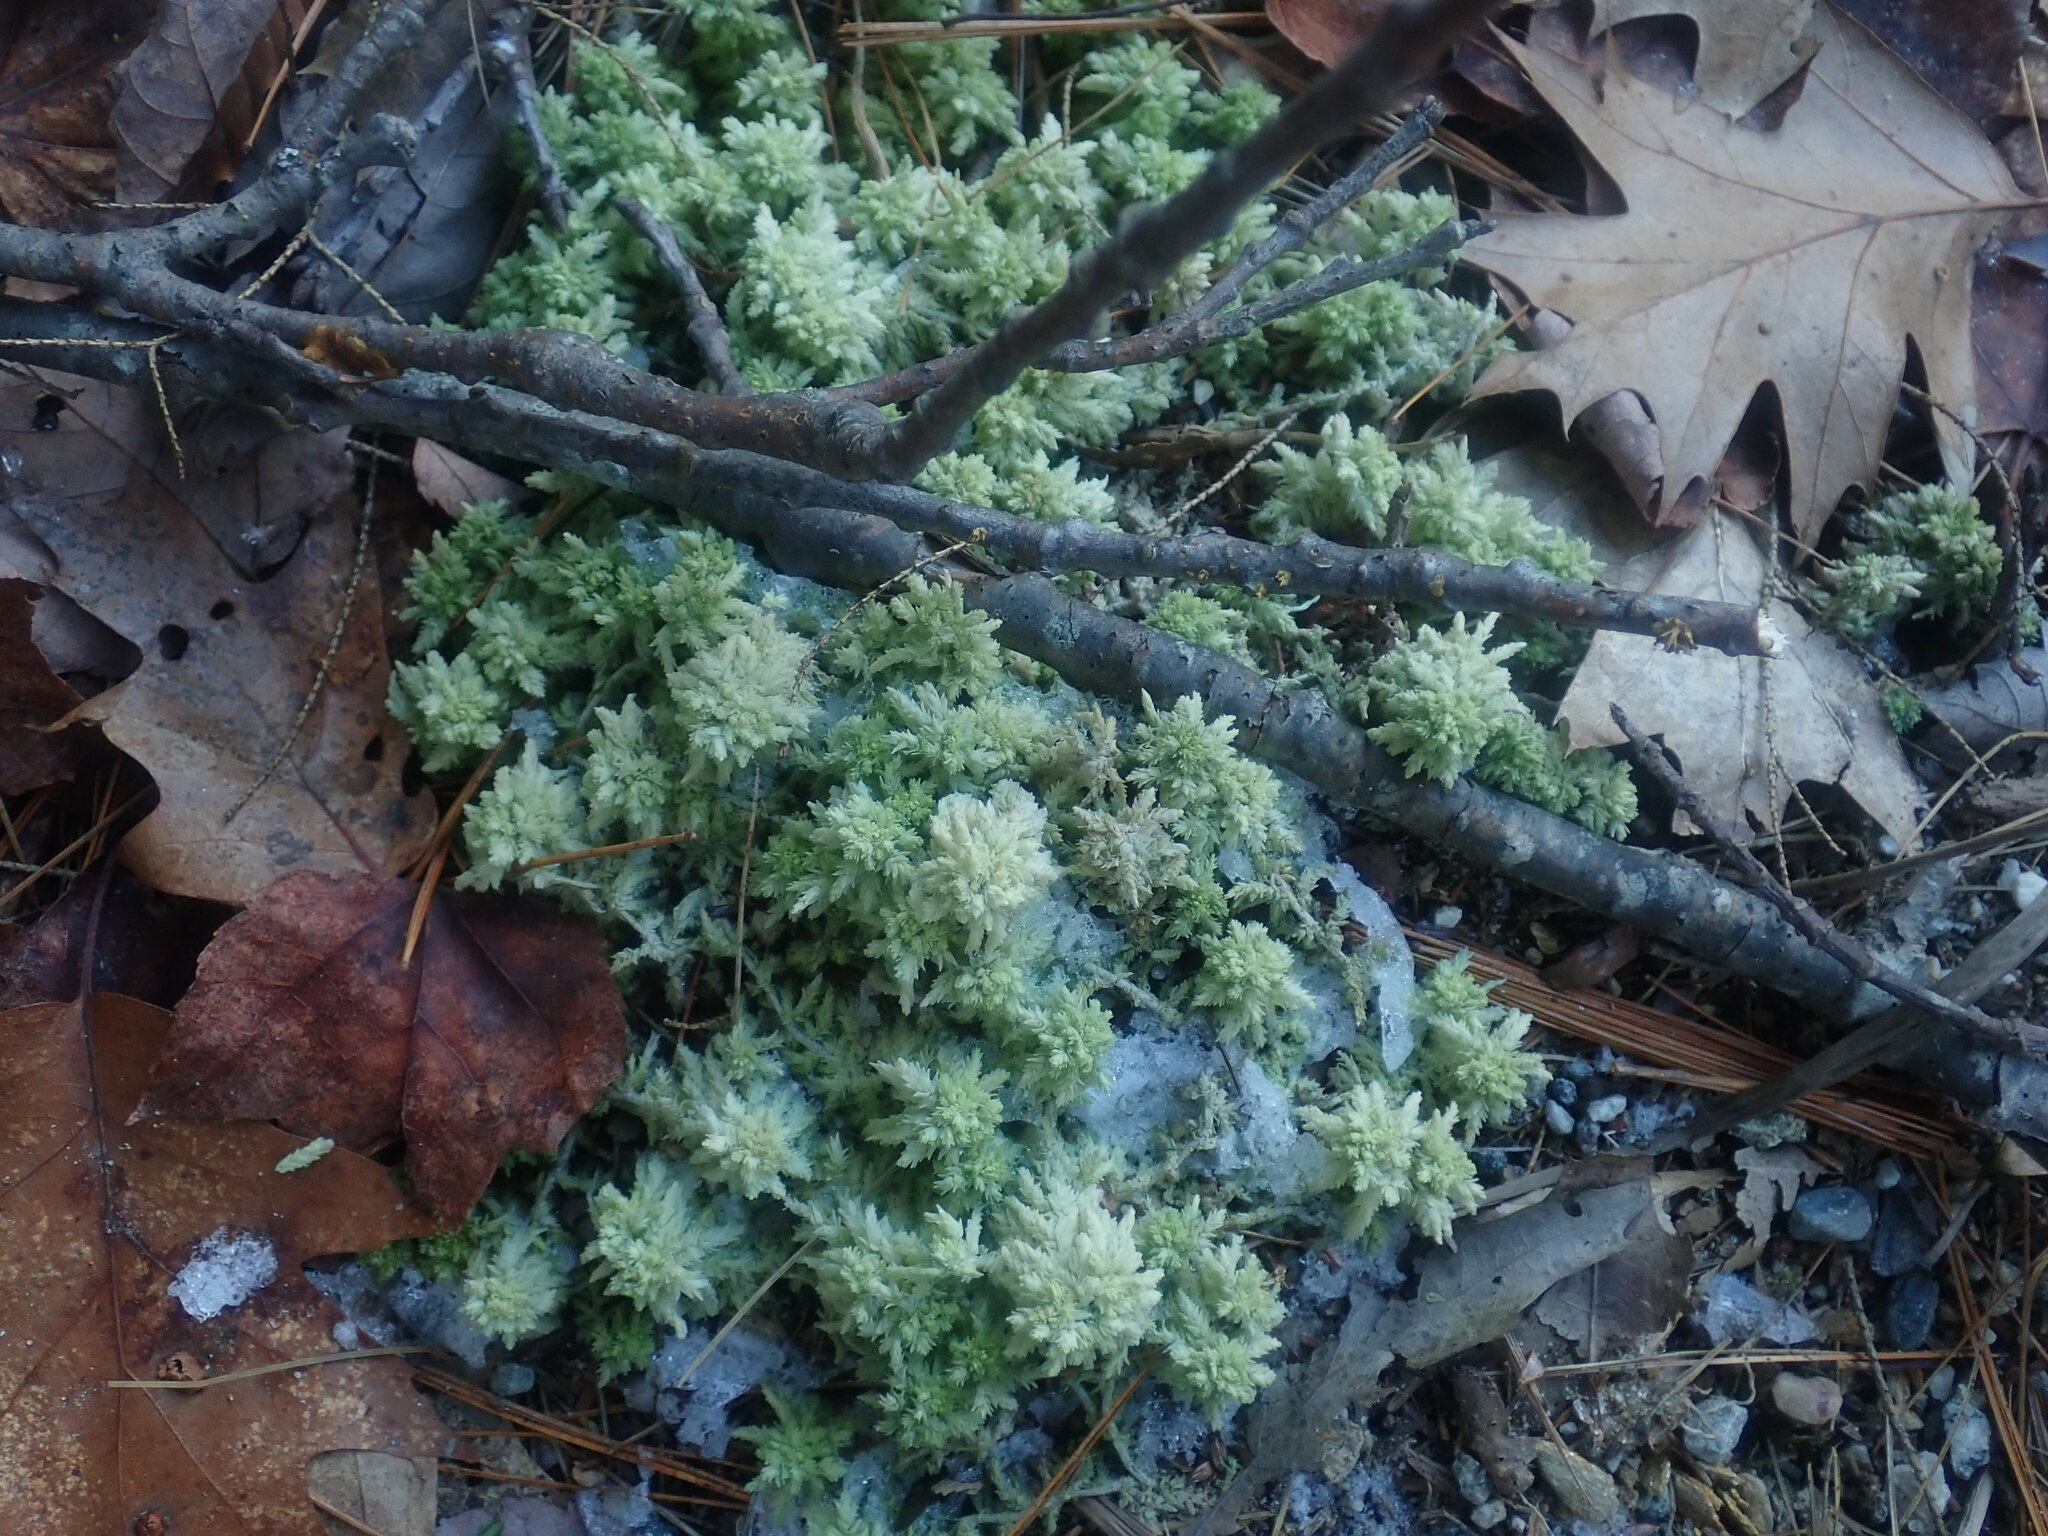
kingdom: Plantae
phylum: Bryophyta
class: Sphagnopsida
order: Sphagnales
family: Sphagnaceae
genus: Sphagnum
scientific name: Sphagnum
